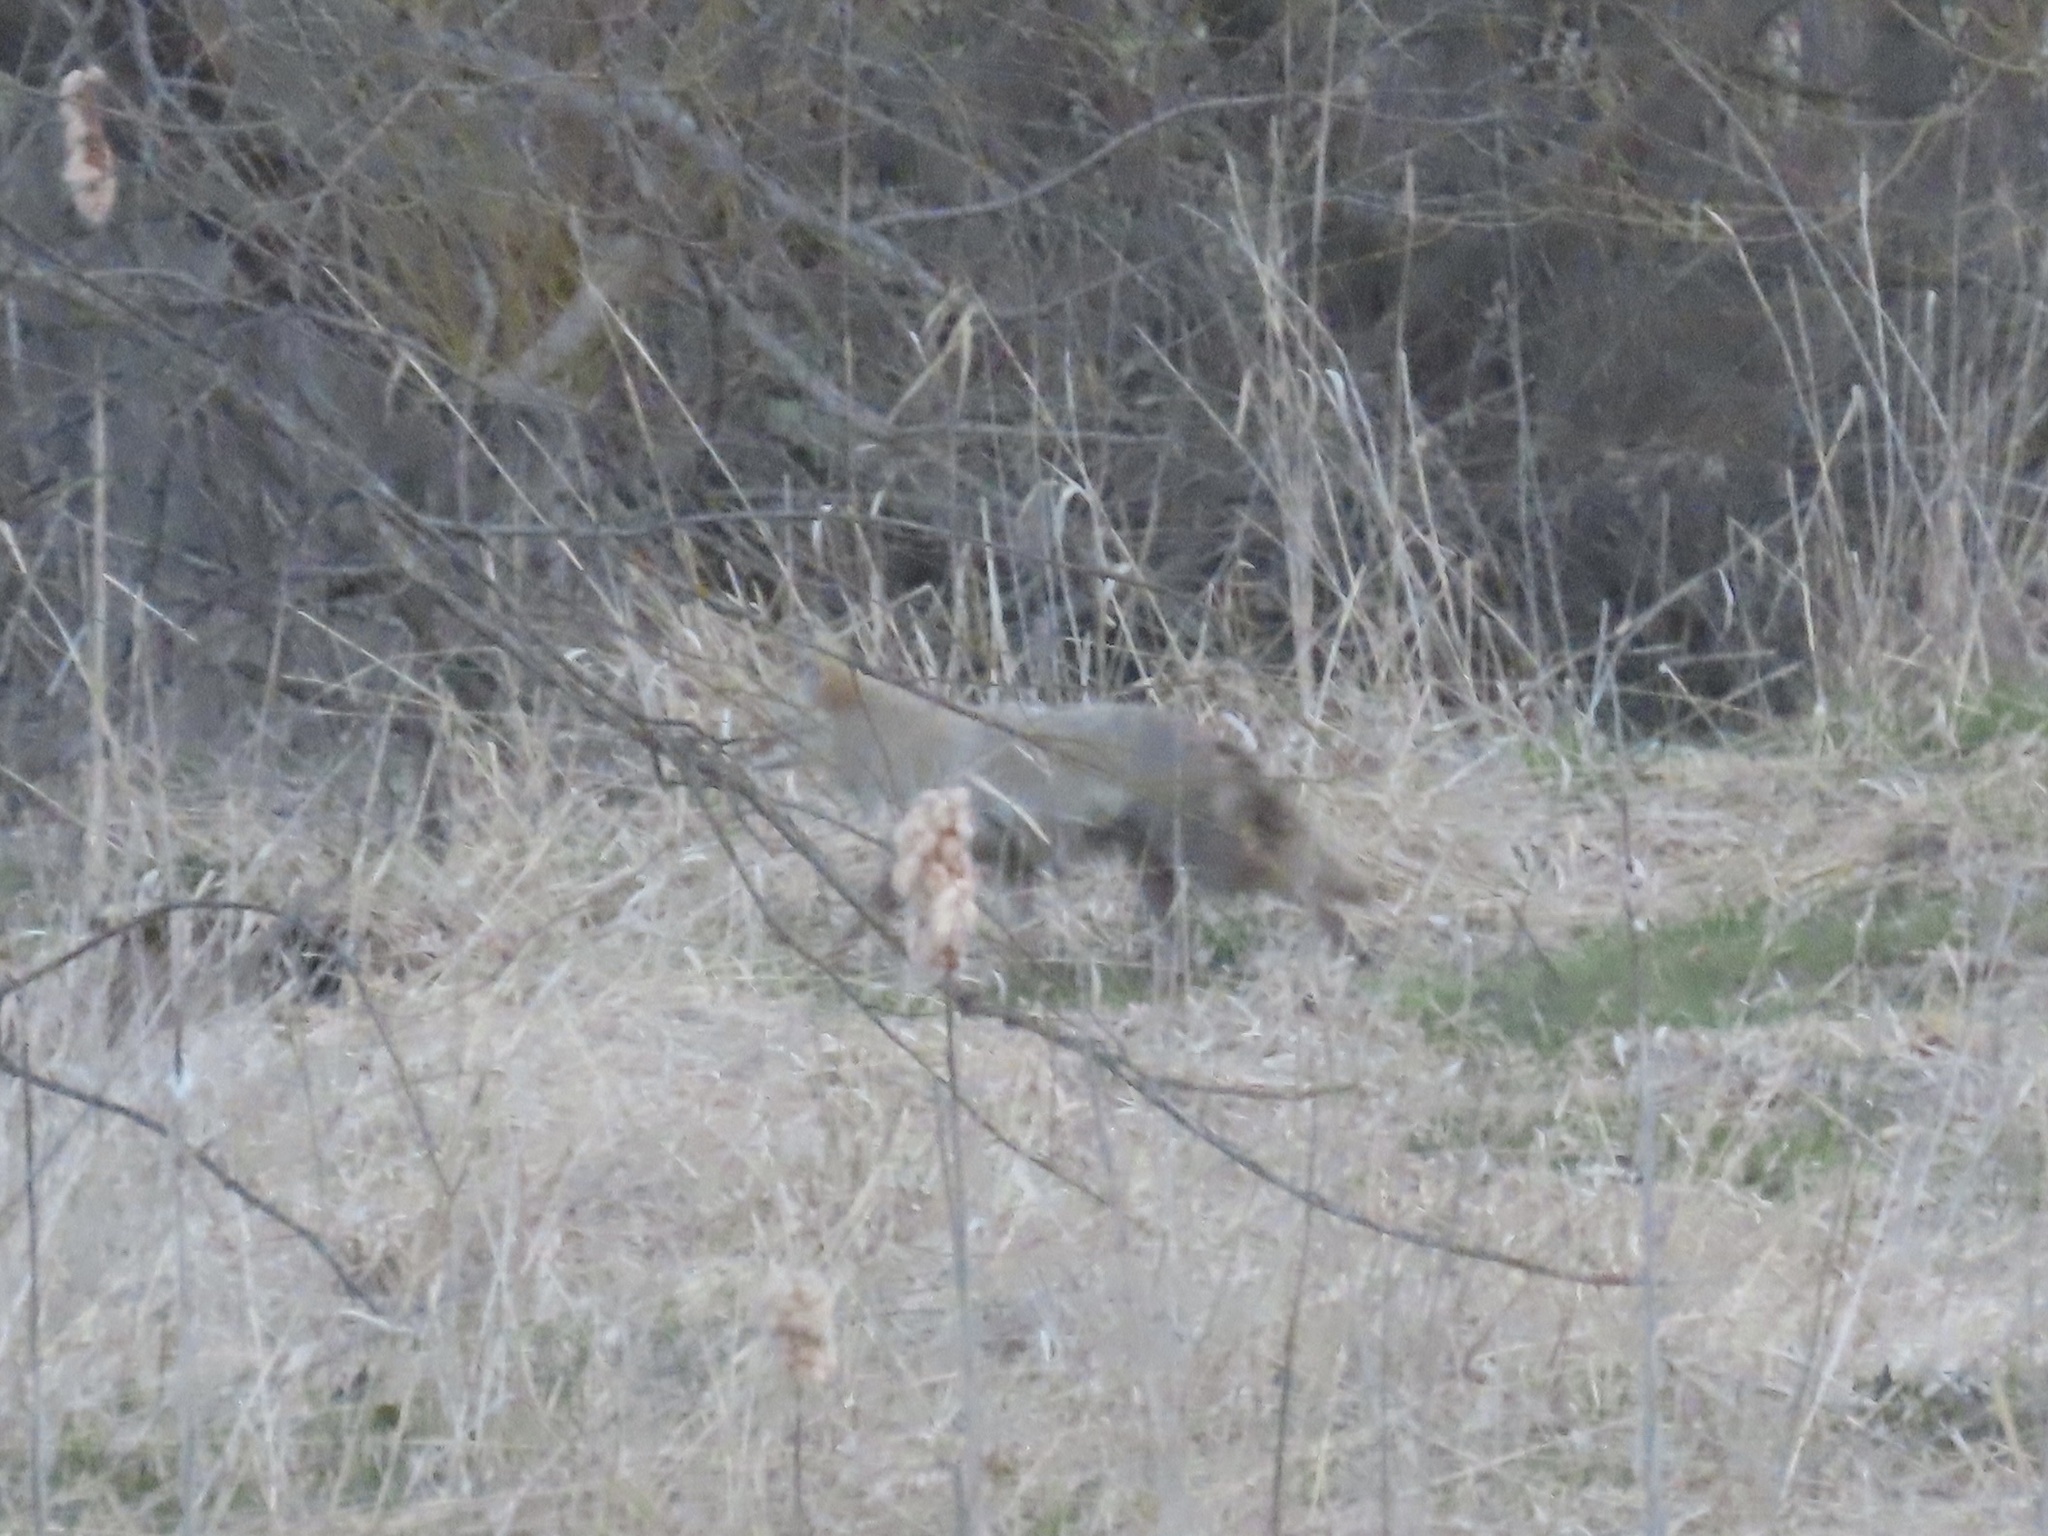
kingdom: Animalia
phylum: Chordata
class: Mammalia
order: Carnivora
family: Canidae
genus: Canis
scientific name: Canis latrans
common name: Coyote
